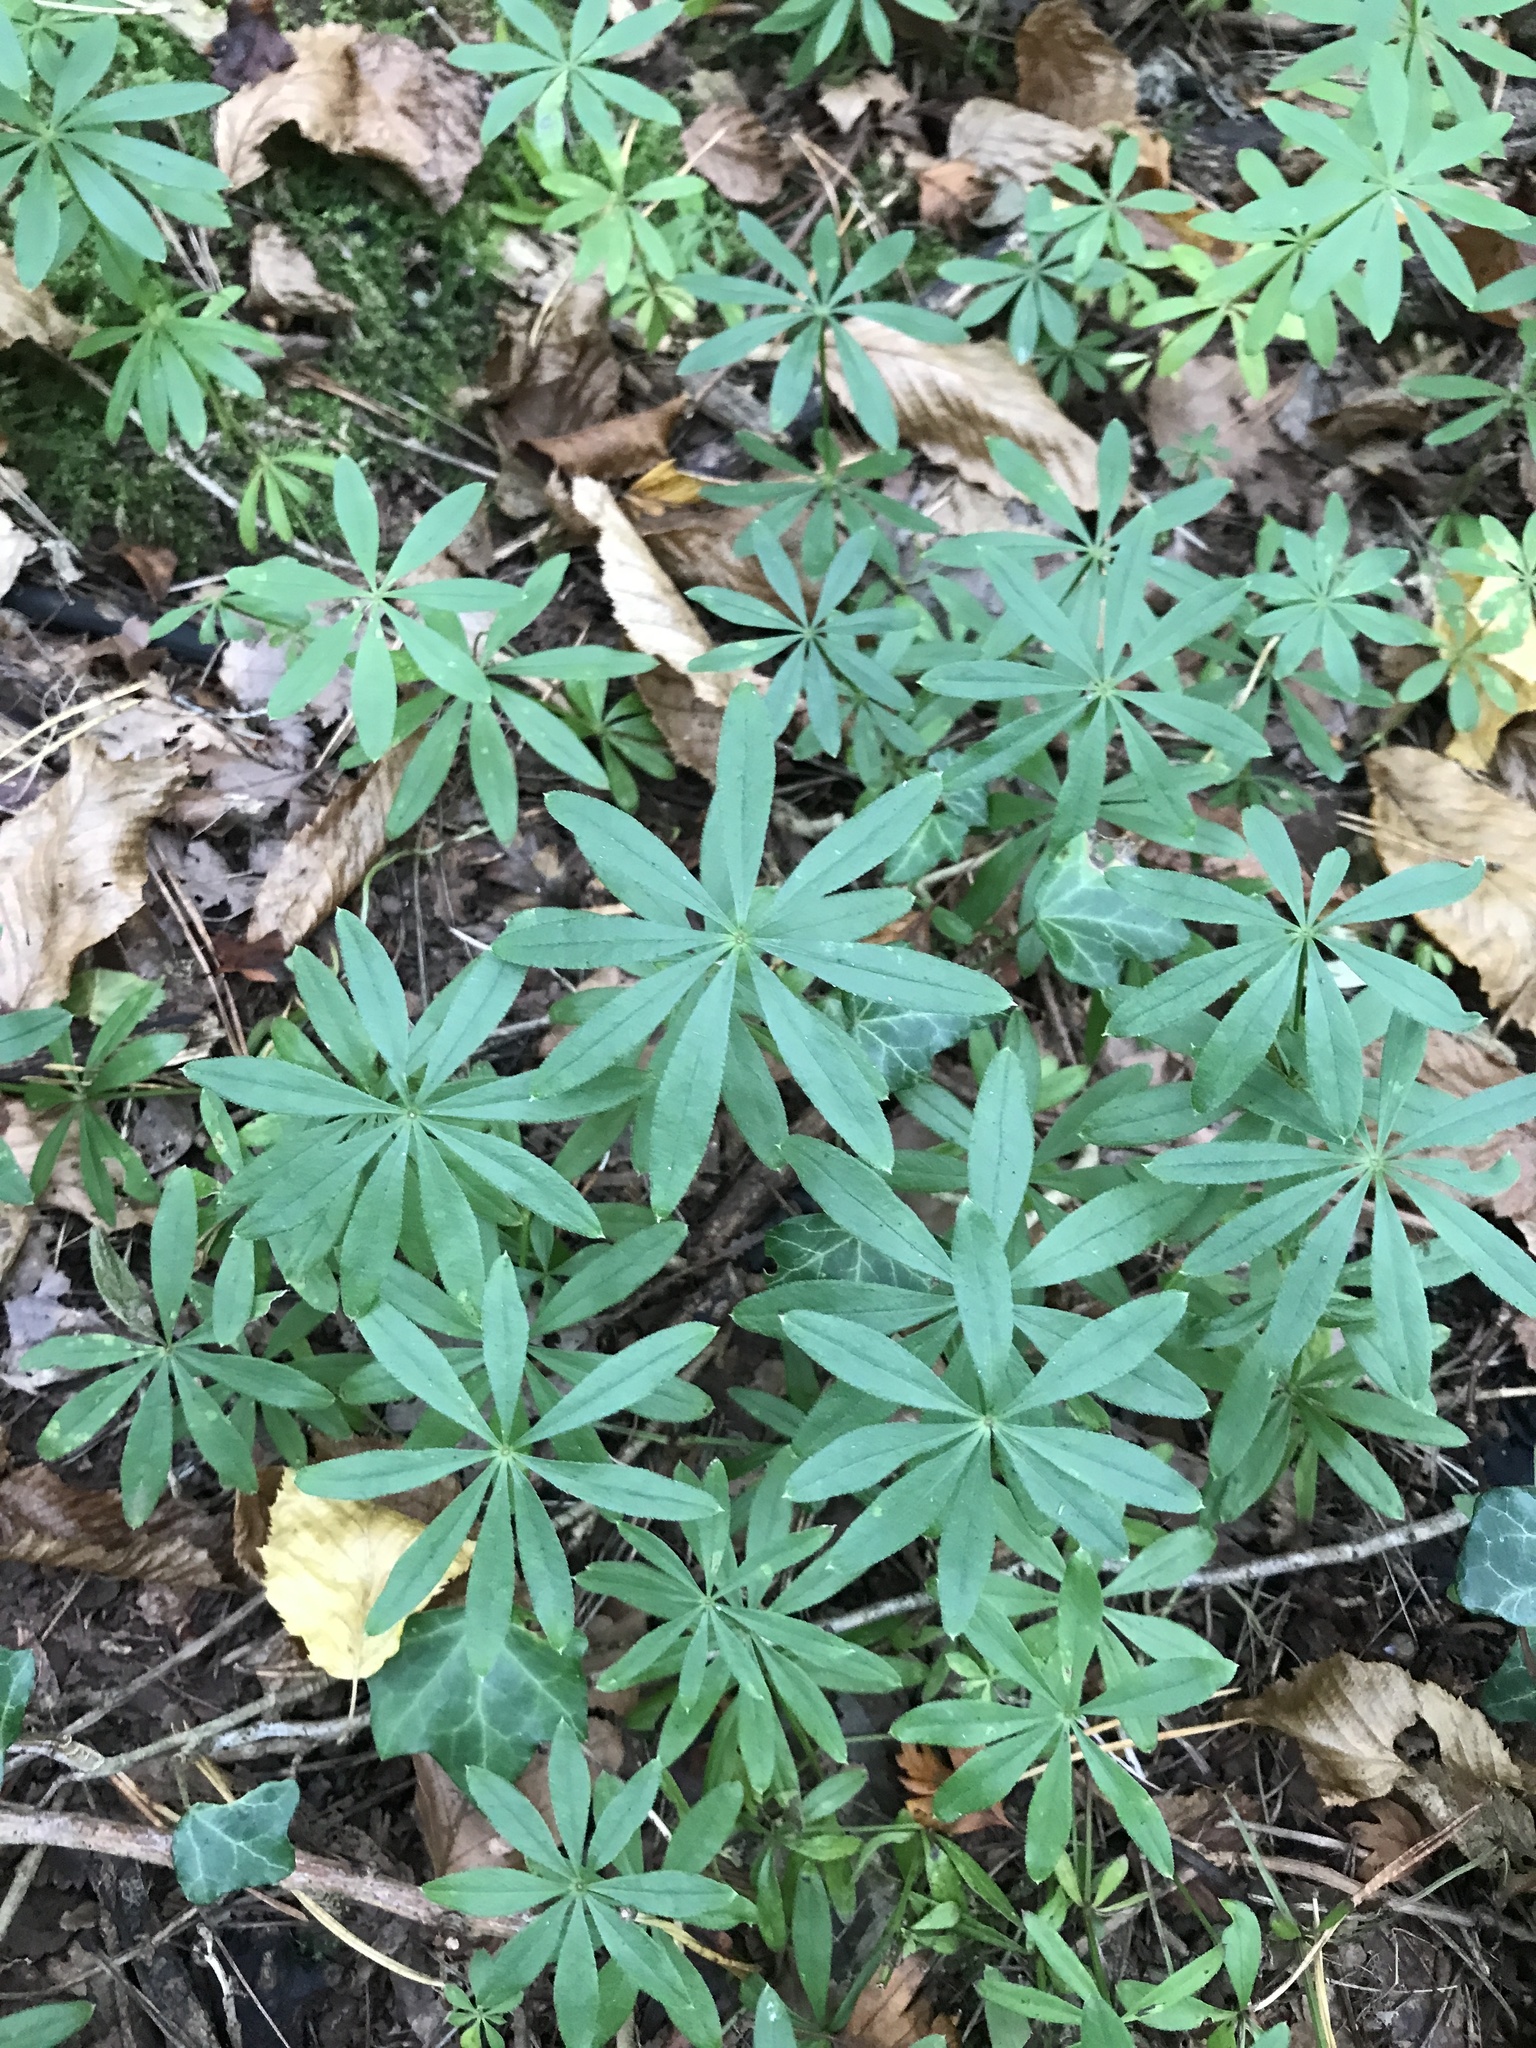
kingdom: Plantae
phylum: Tracheophyta
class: Magnoliopsida
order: Gentianales
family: Rubiaceae
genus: Galium
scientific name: Galium odoratum
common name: Sweet woodruff
